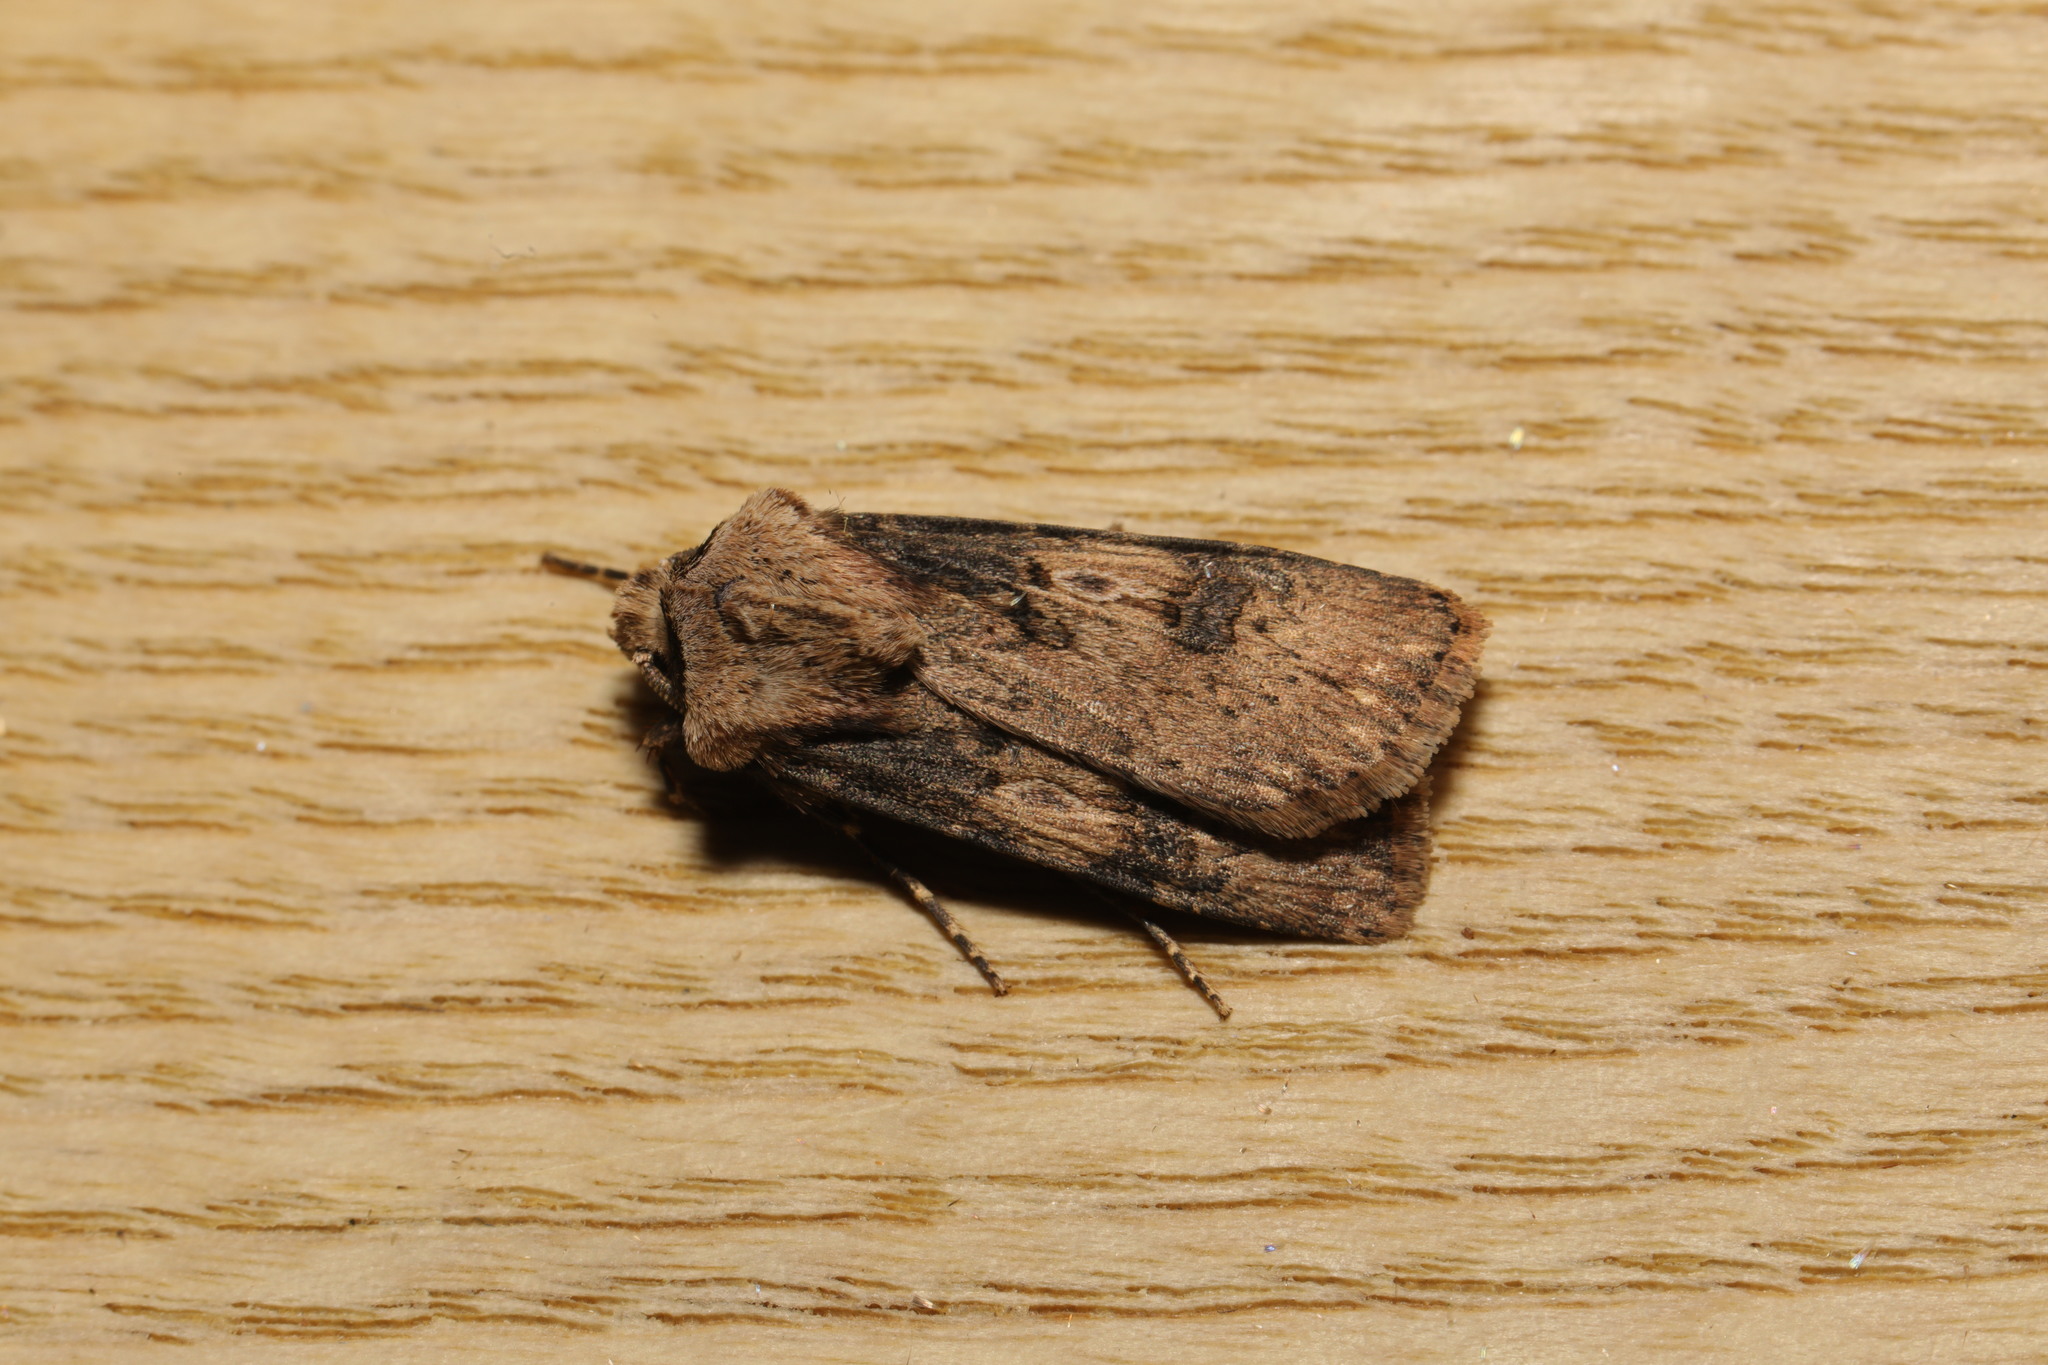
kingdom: Animalia
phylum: Arthropoda
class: Insecta
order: Lepidoptera
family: Noctuidae
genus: Agrotis
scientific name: Agrotis puta
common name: Shuttle-shaped dart
